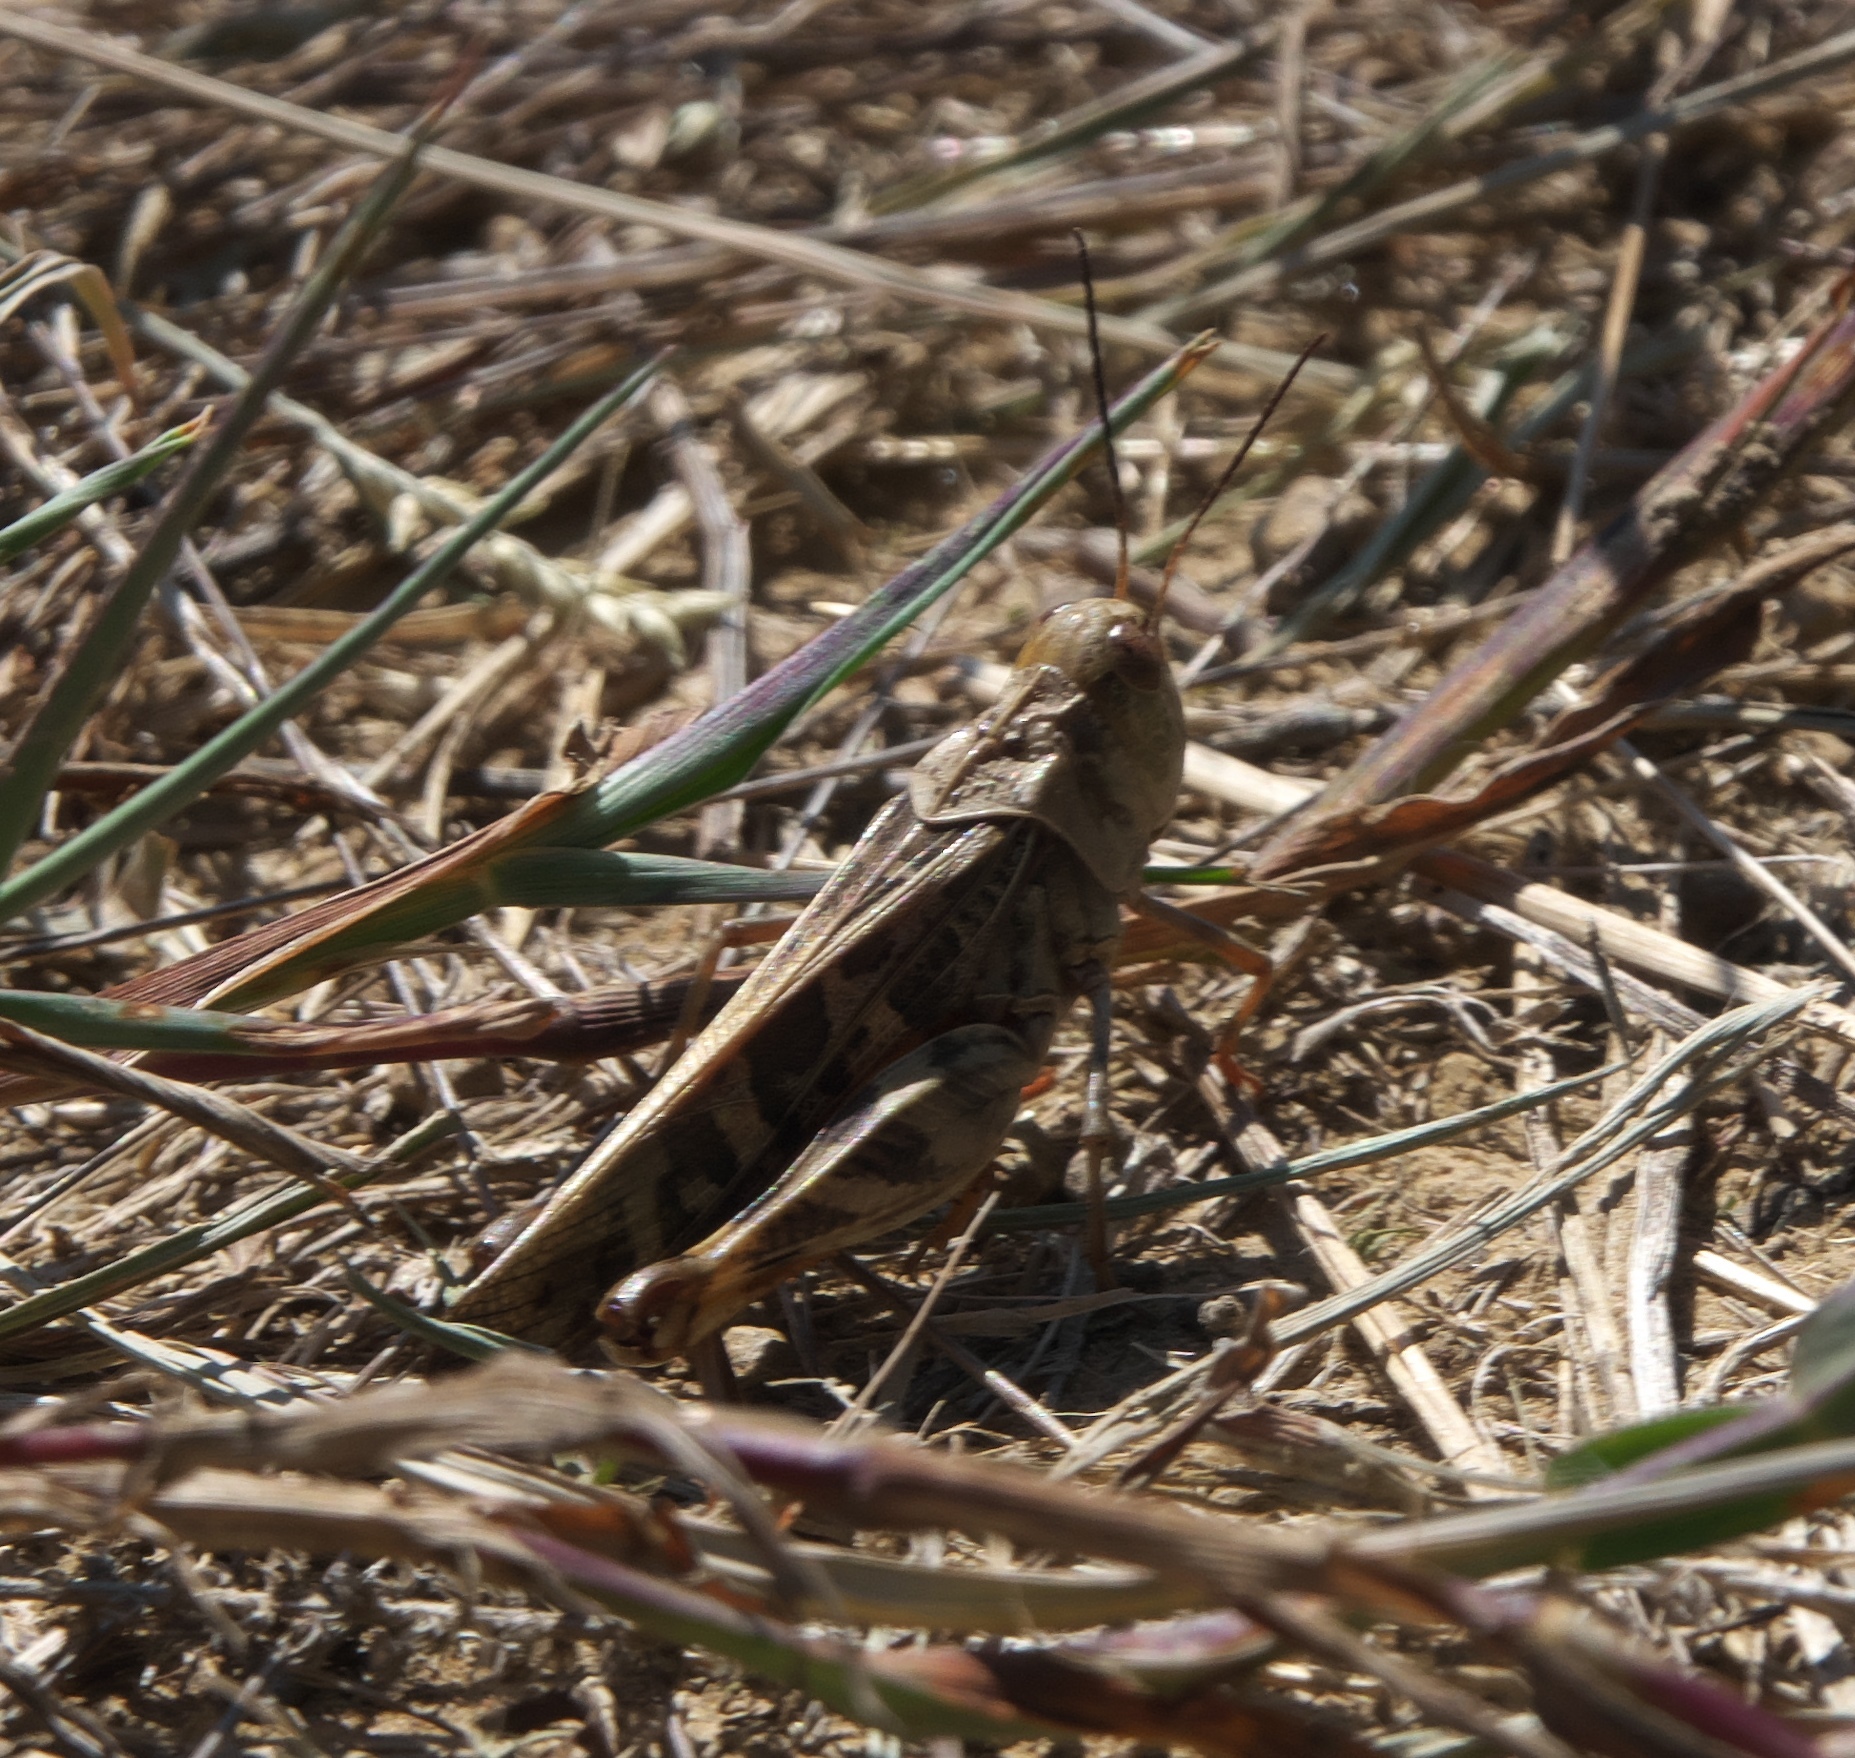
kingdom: Animalia
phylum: Arthropoda
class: Insecta
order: Orthoptera
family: Acrididae
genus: Hippiscus
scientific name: Hippiscus ocelote
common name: Wrinkled grasshopper
